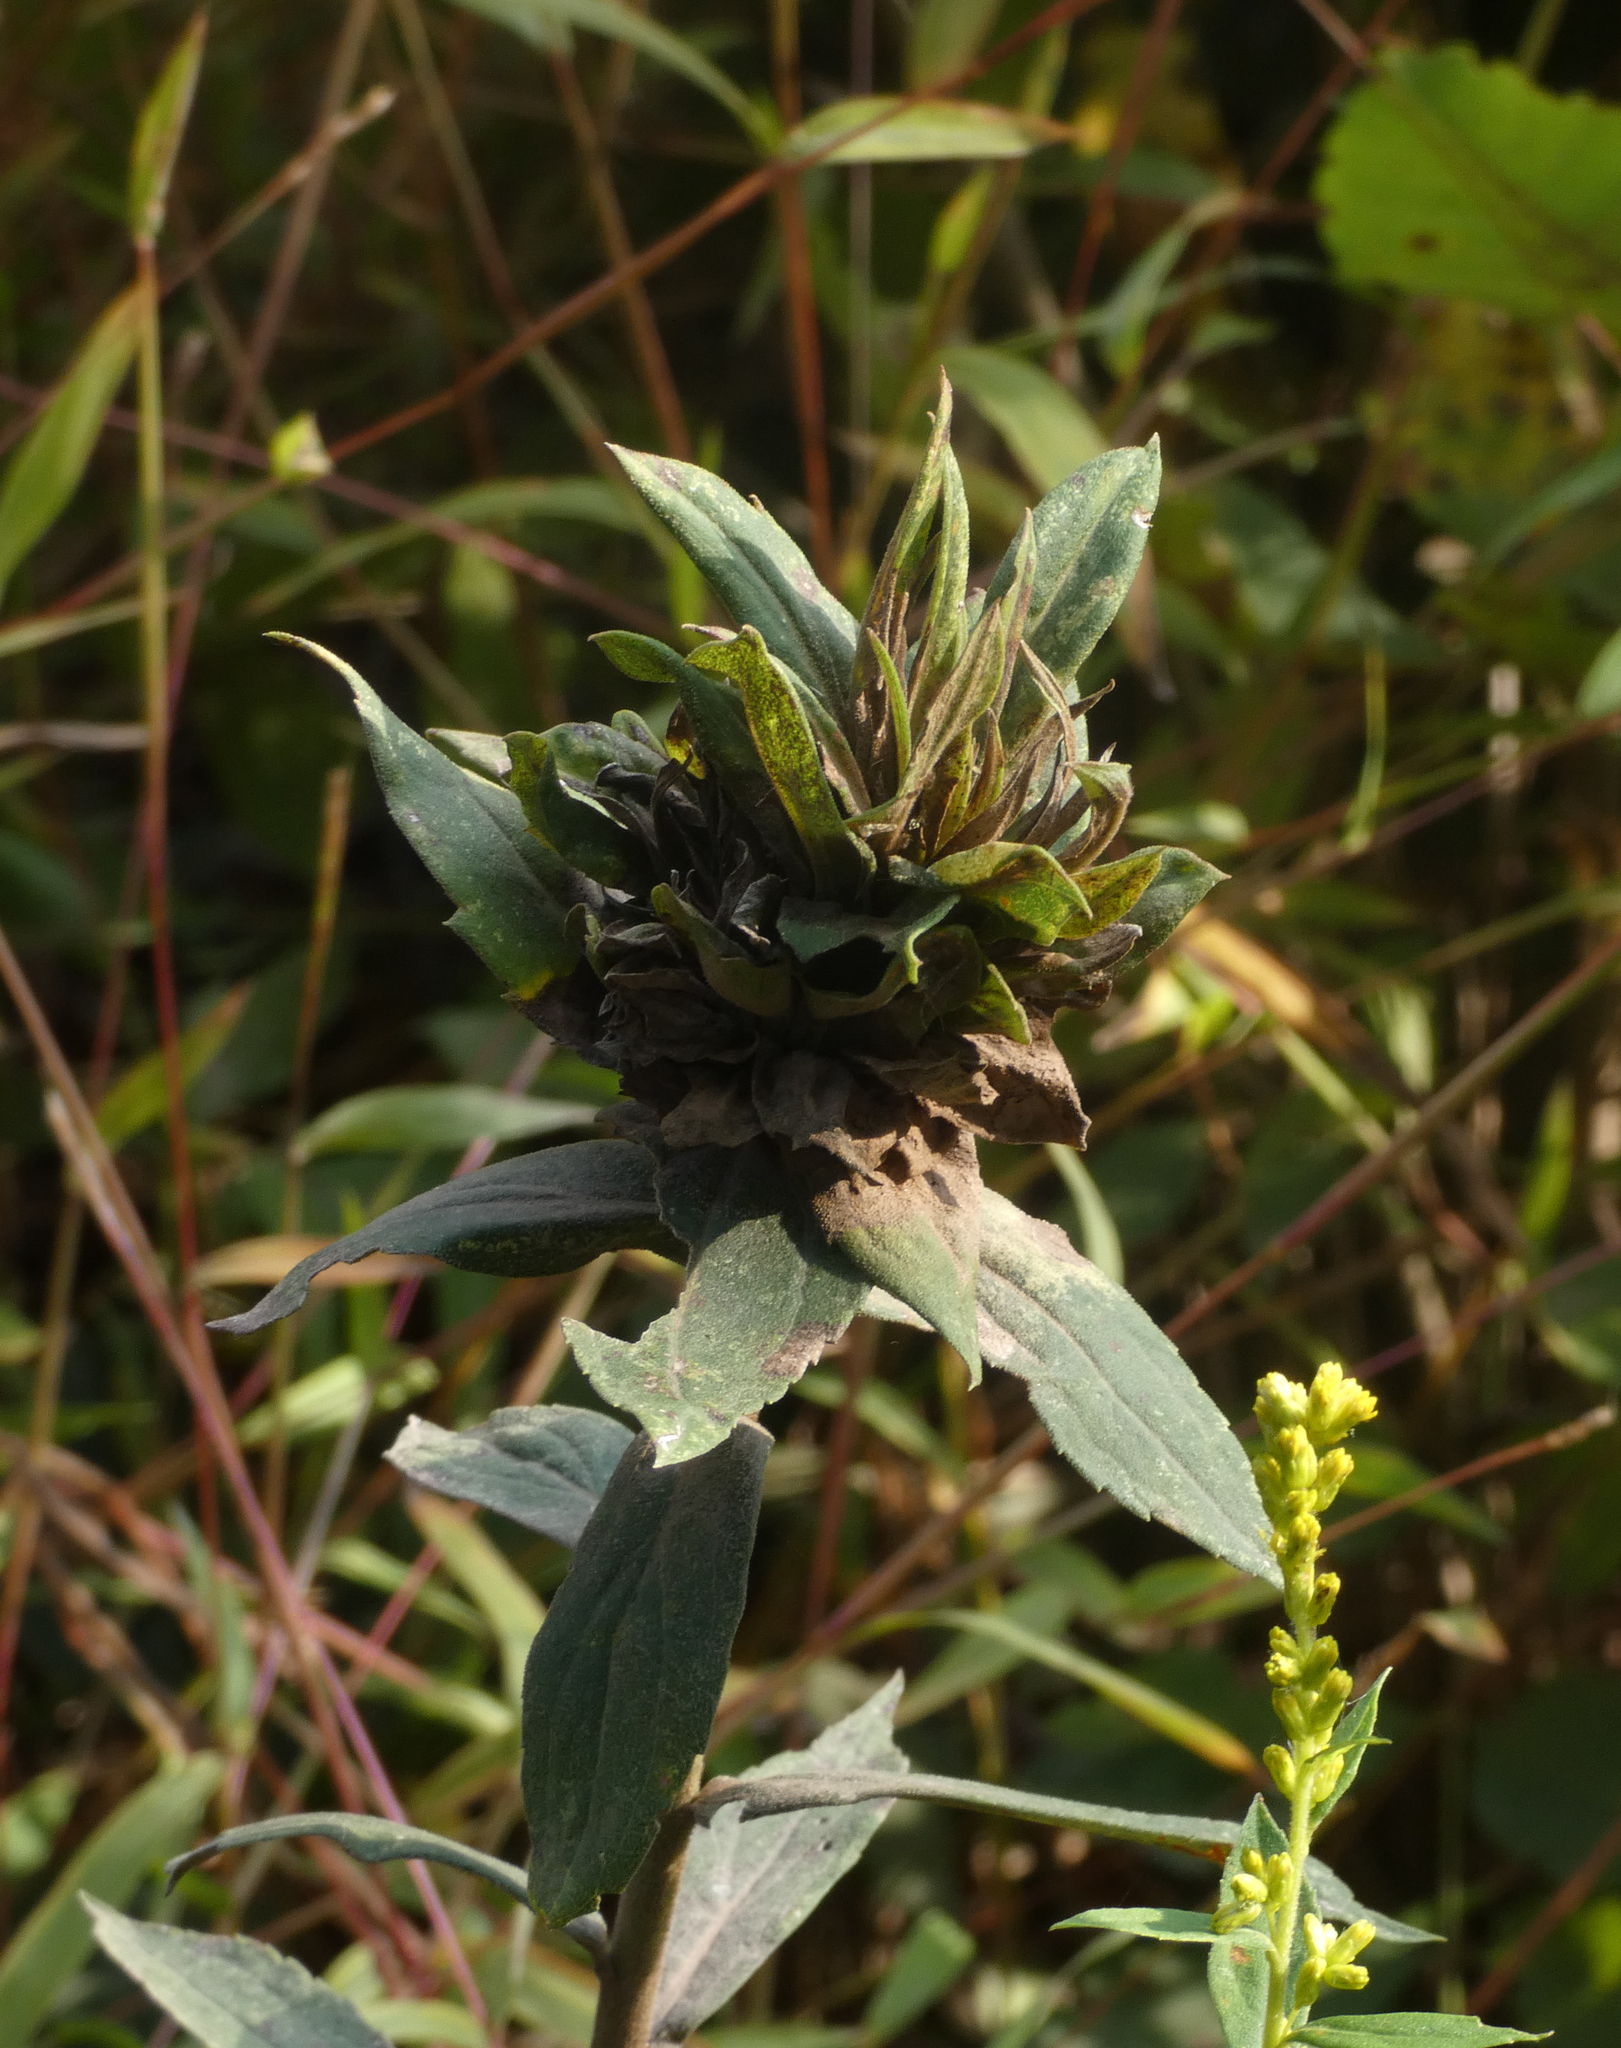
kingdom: Animalia
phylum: Arthropoda
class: Insecta
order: Diptera
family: Cecidomyiidae
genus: Rhopalomyia
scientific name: Rhopalomyia solidaginis
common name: Goldenrod bunch gall midge
